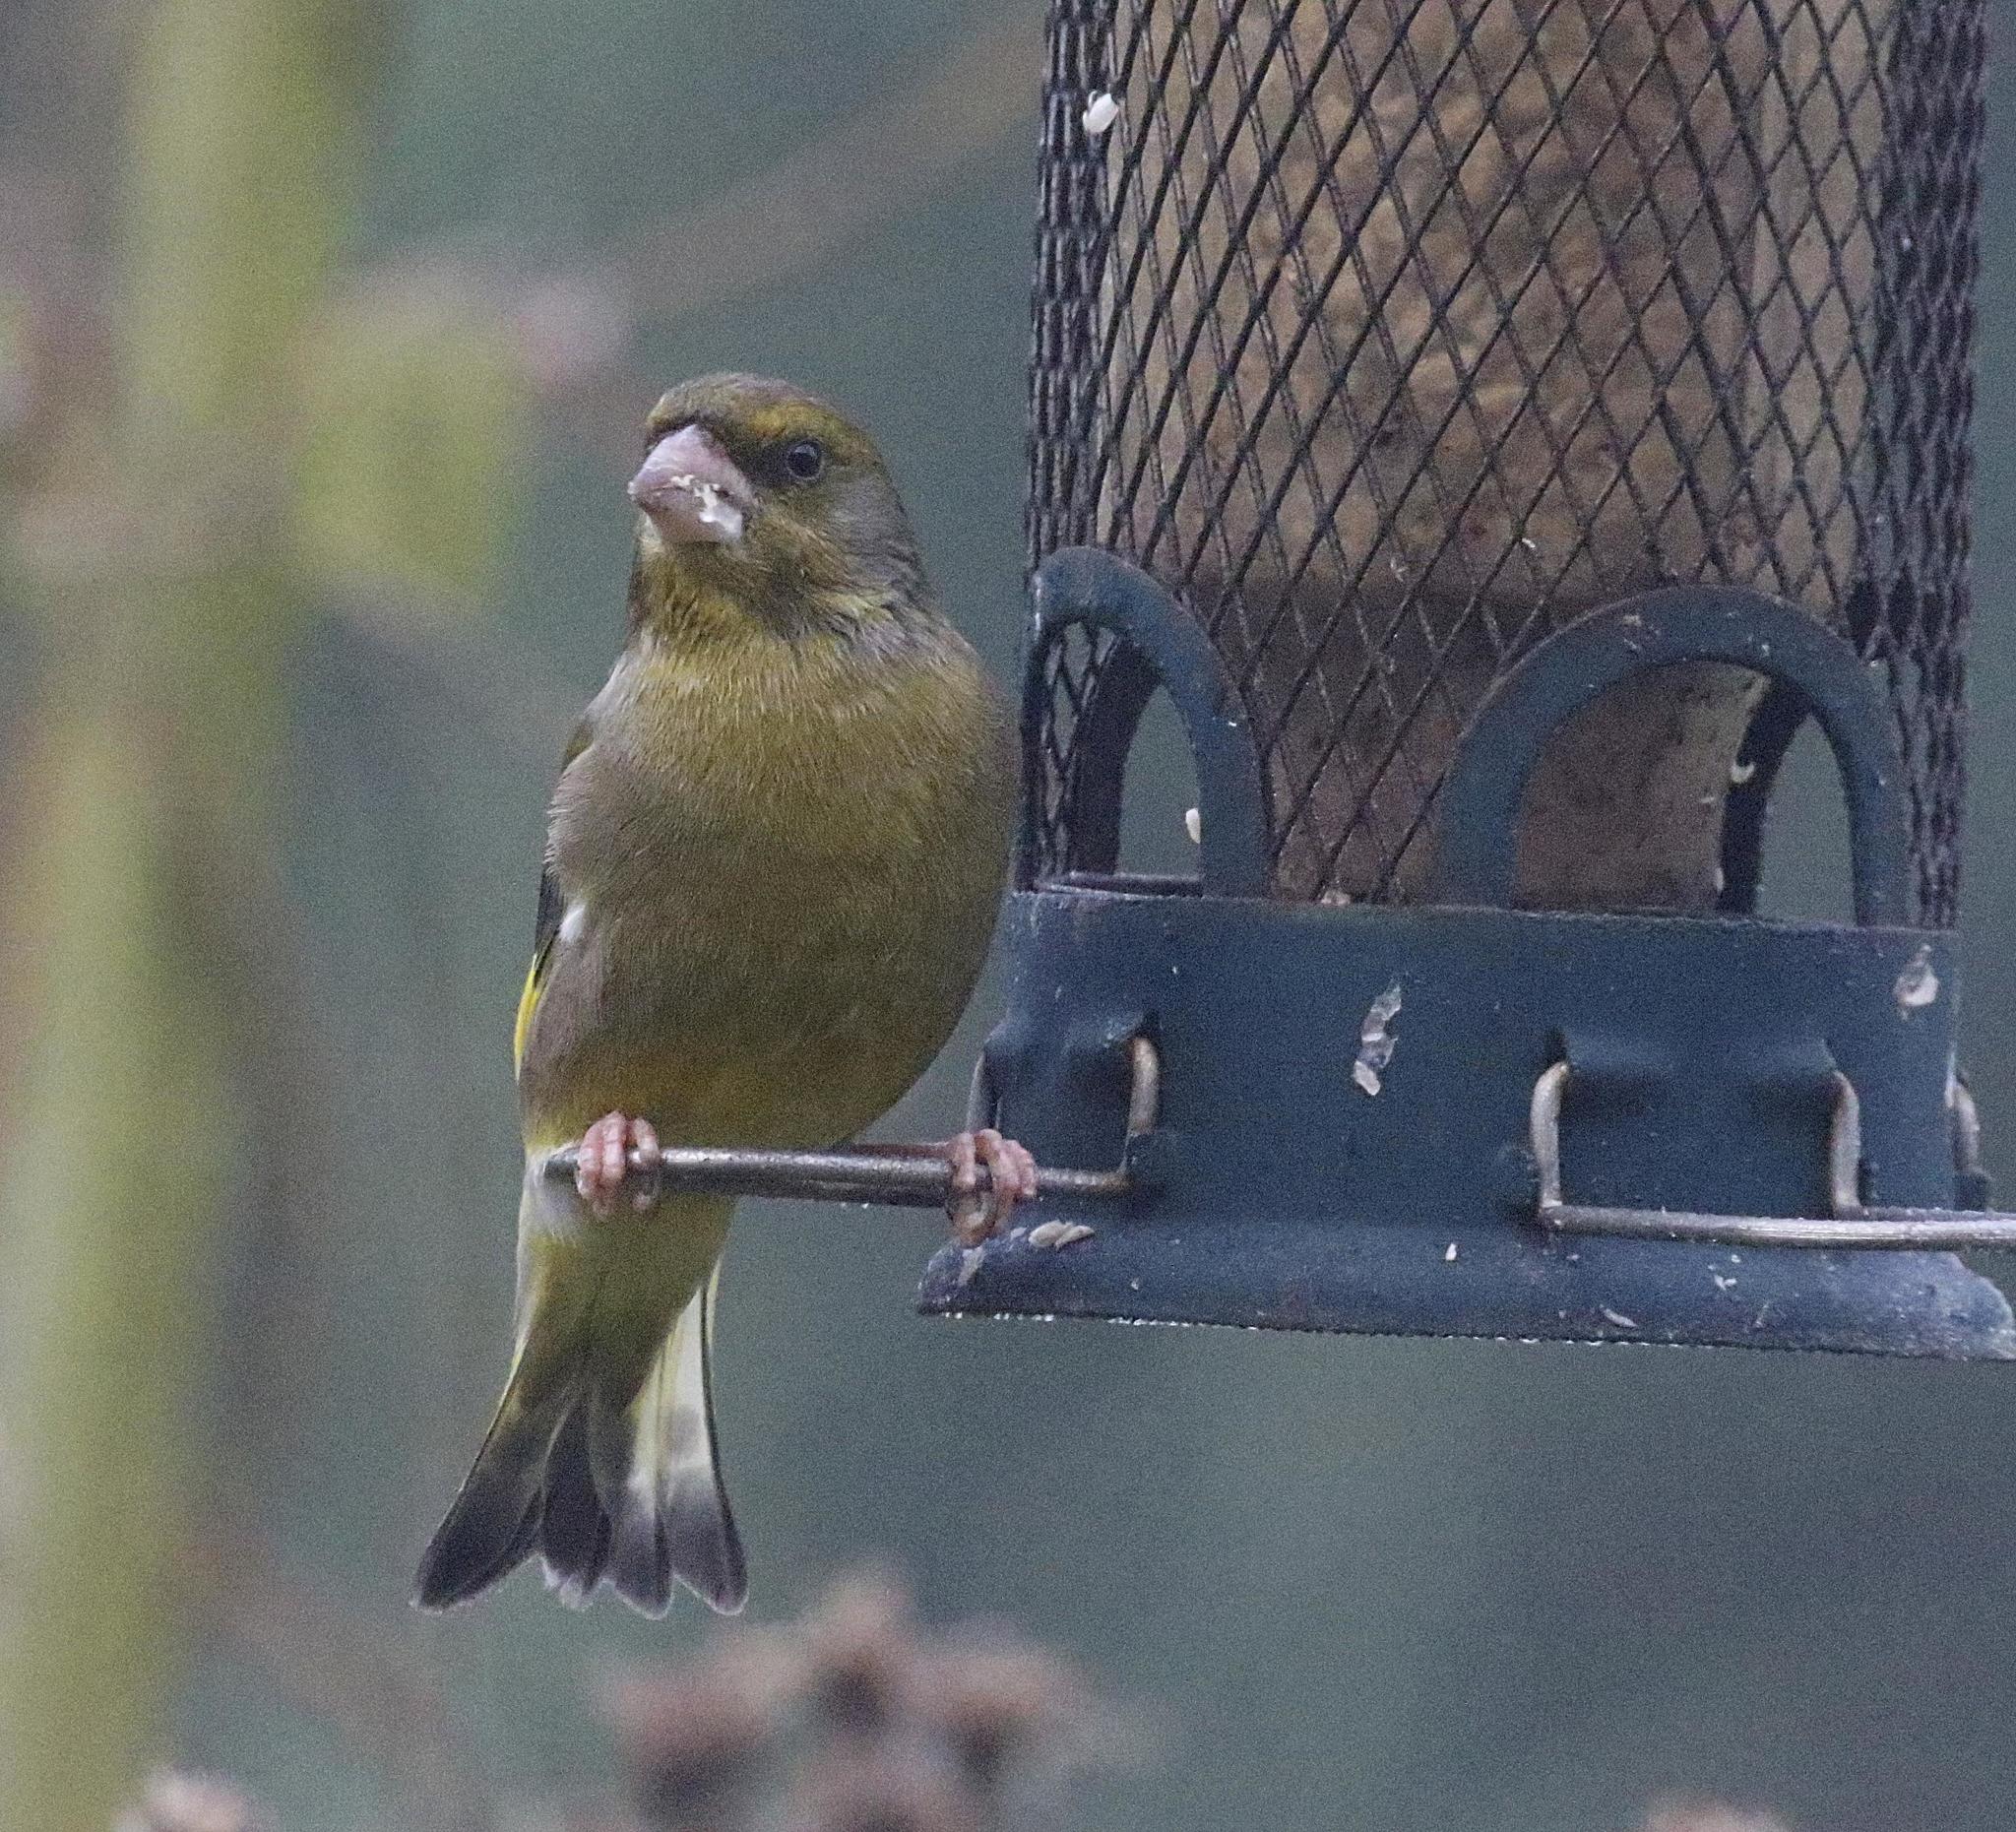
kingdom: Plantae
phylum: Tracheophyta
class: Liliopsida
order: Poales
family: Poaceae
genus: Chloris
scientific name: Chloris chloris
